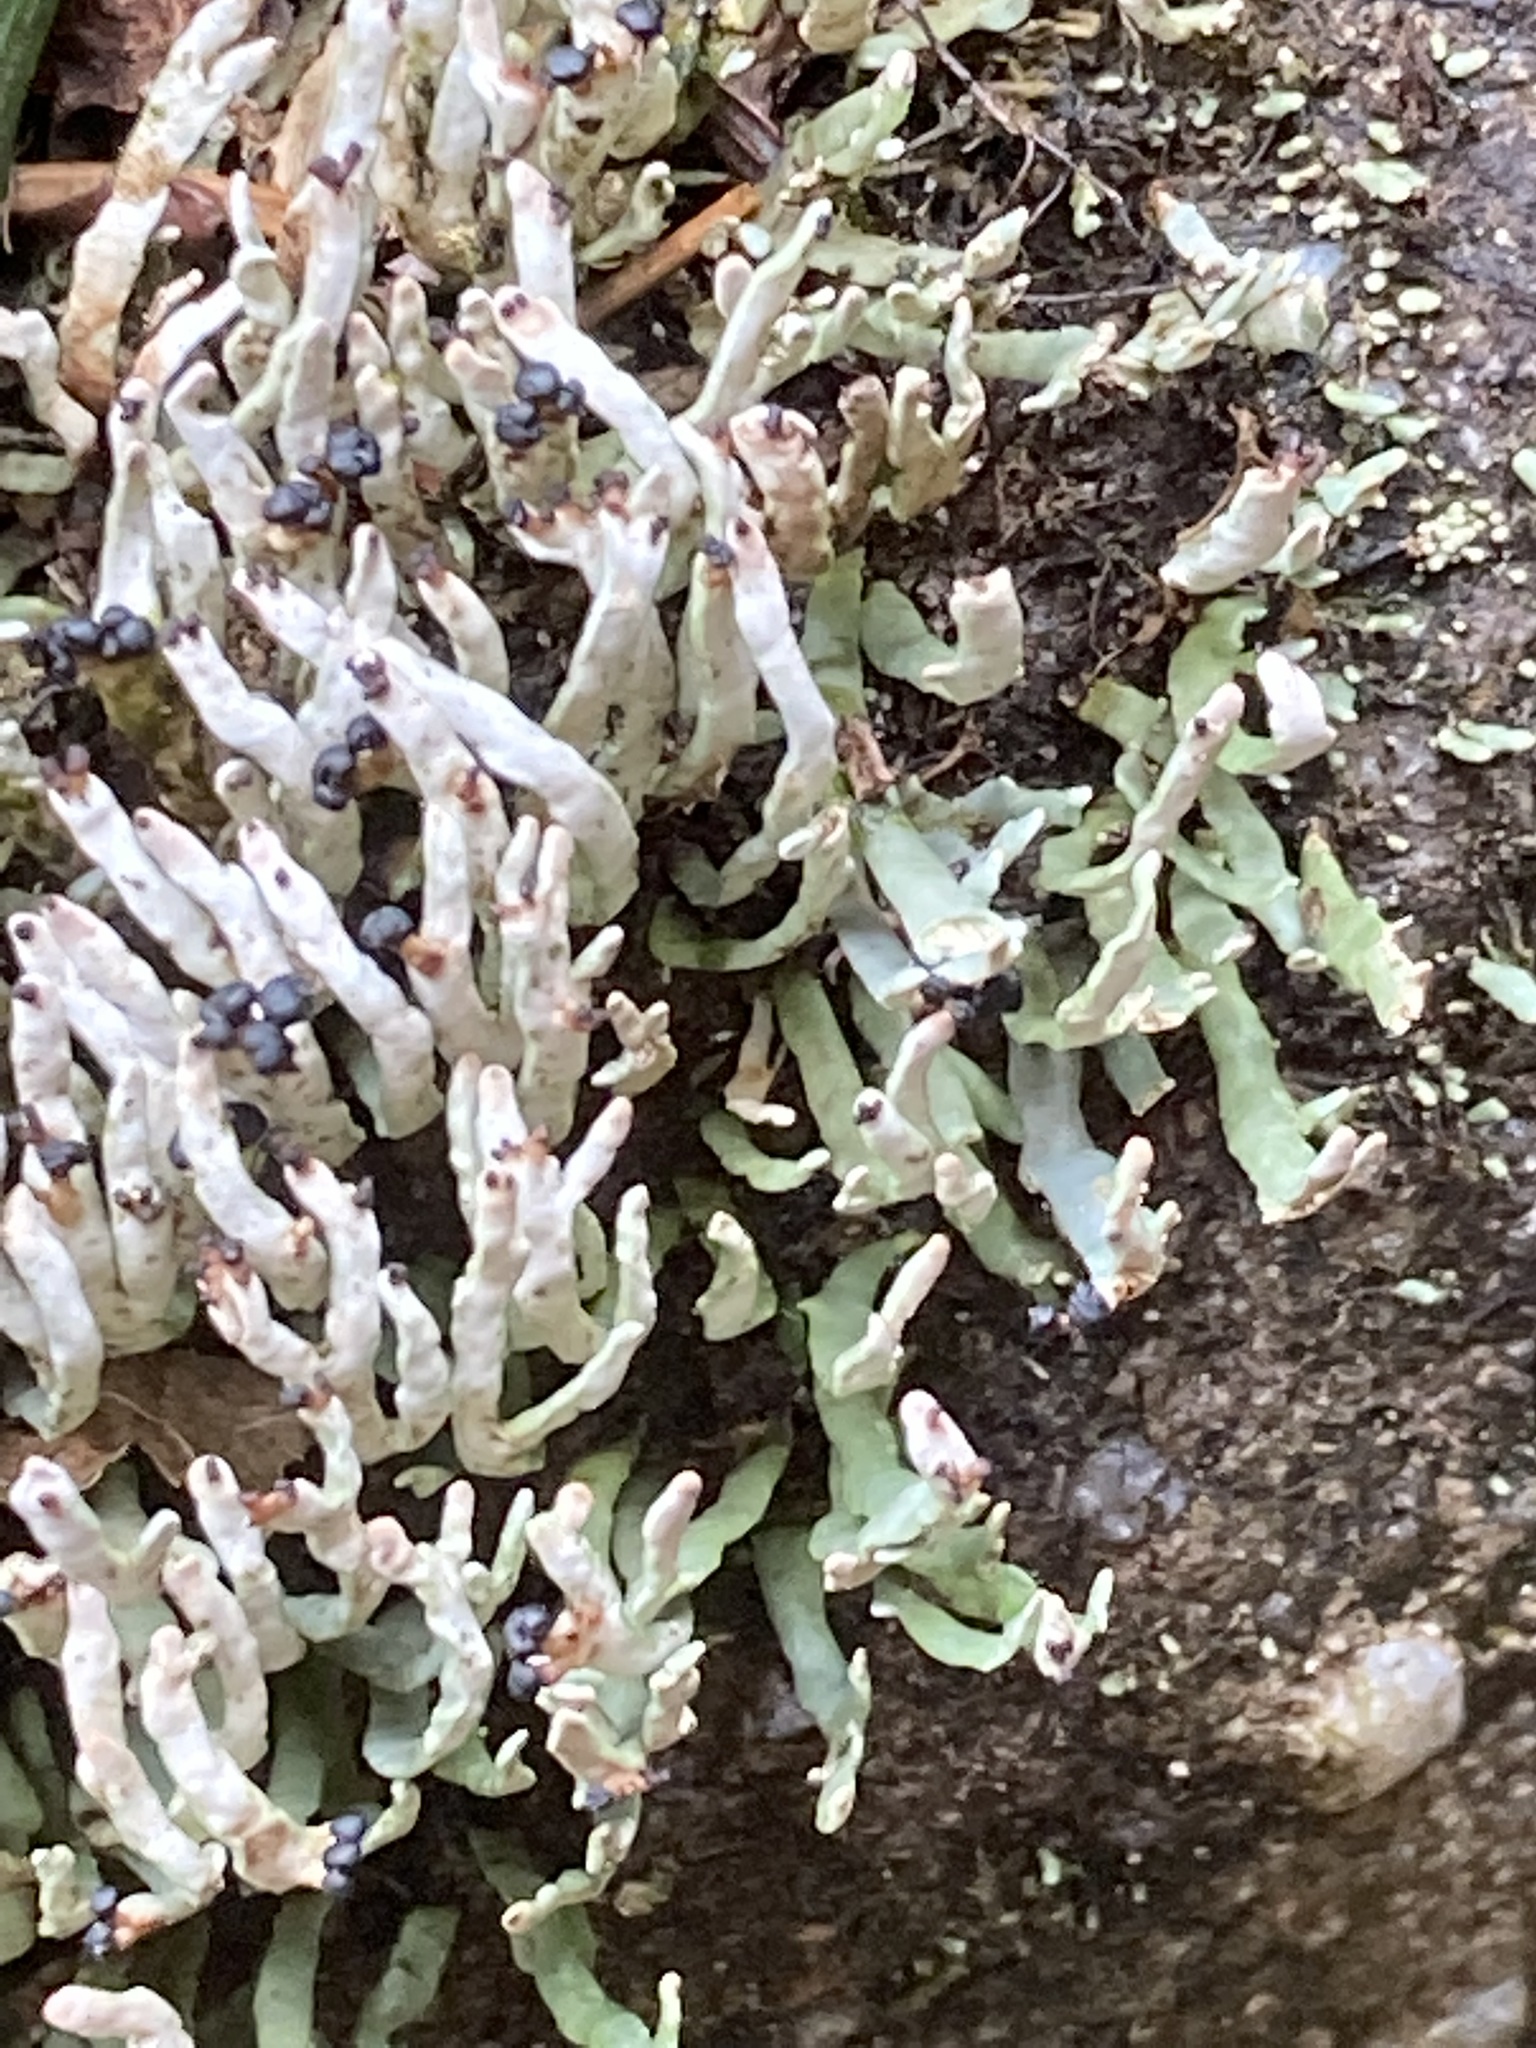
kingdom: Fungi
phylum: Ascomycota
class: Lecanoromycetes
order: Lecanorales
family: Cladoniaceae
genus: Cetradonia
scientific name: Cetradonia linearis
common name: Rock gnome lichen
